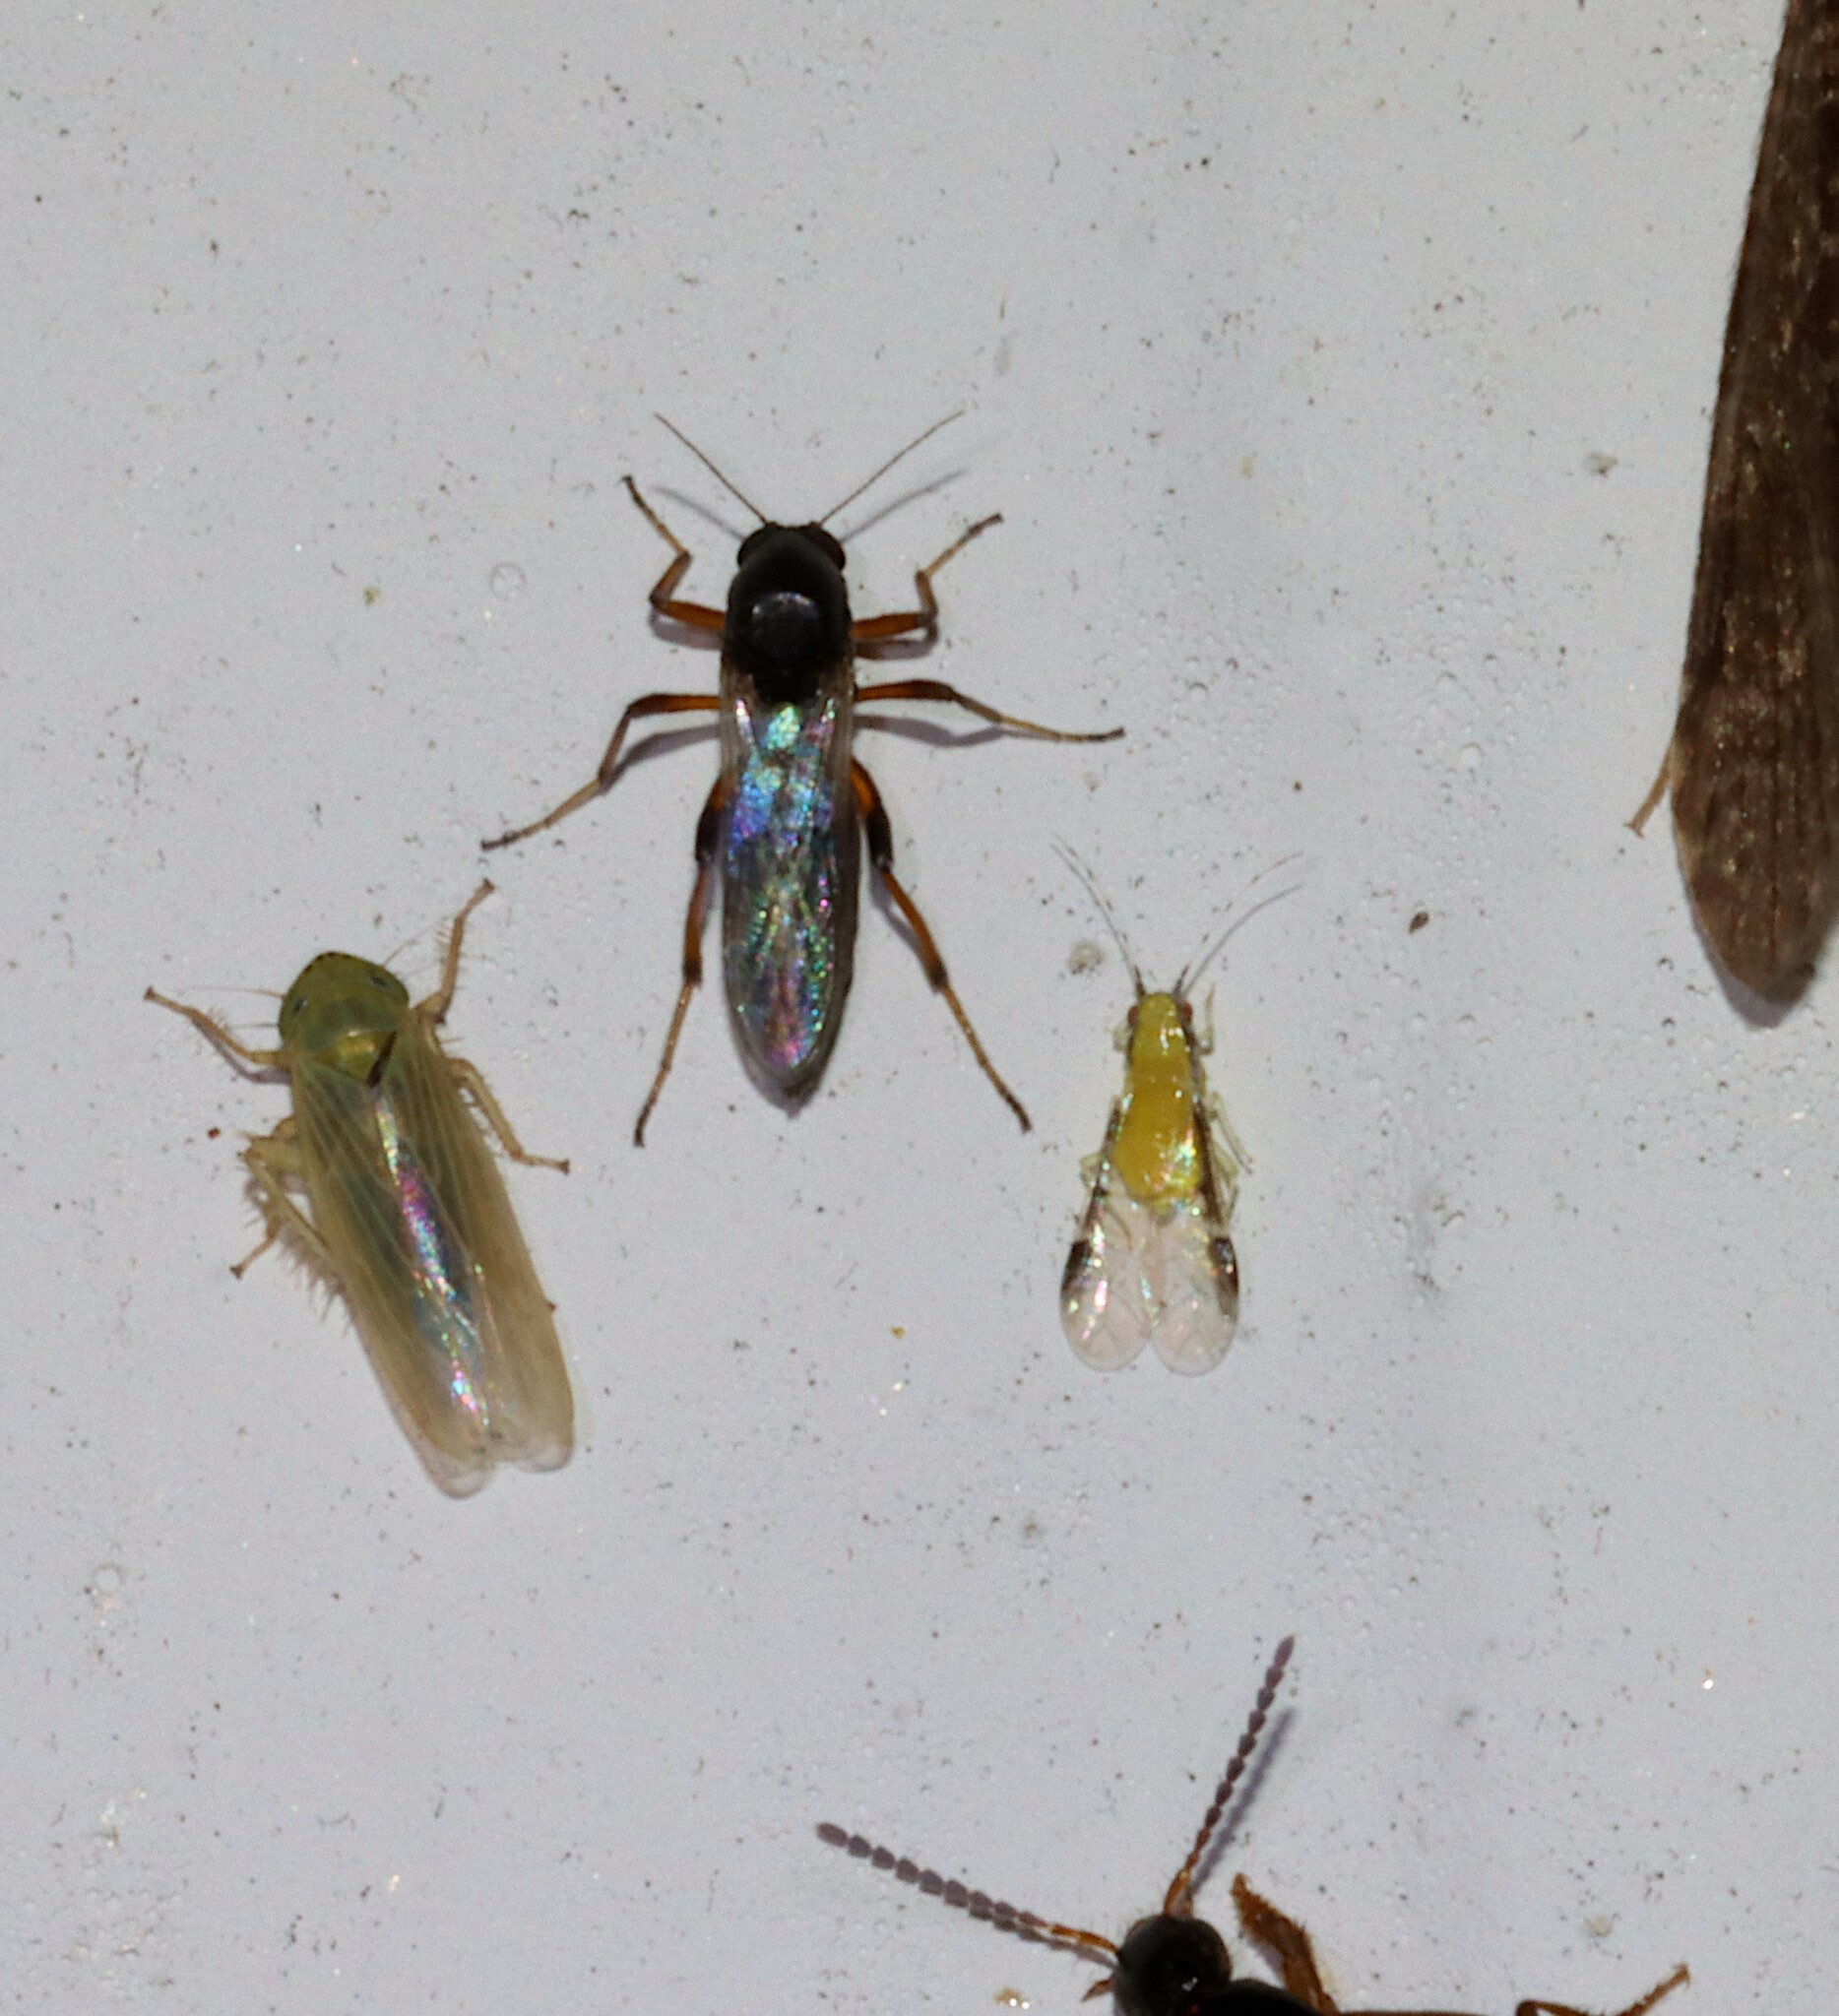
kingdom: Animalia
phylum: Arthropoda
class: Insecta
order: Hemiptera
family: Aphididae
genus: Monellia
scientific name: Monellia caryella
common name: Blackmargined aphid
